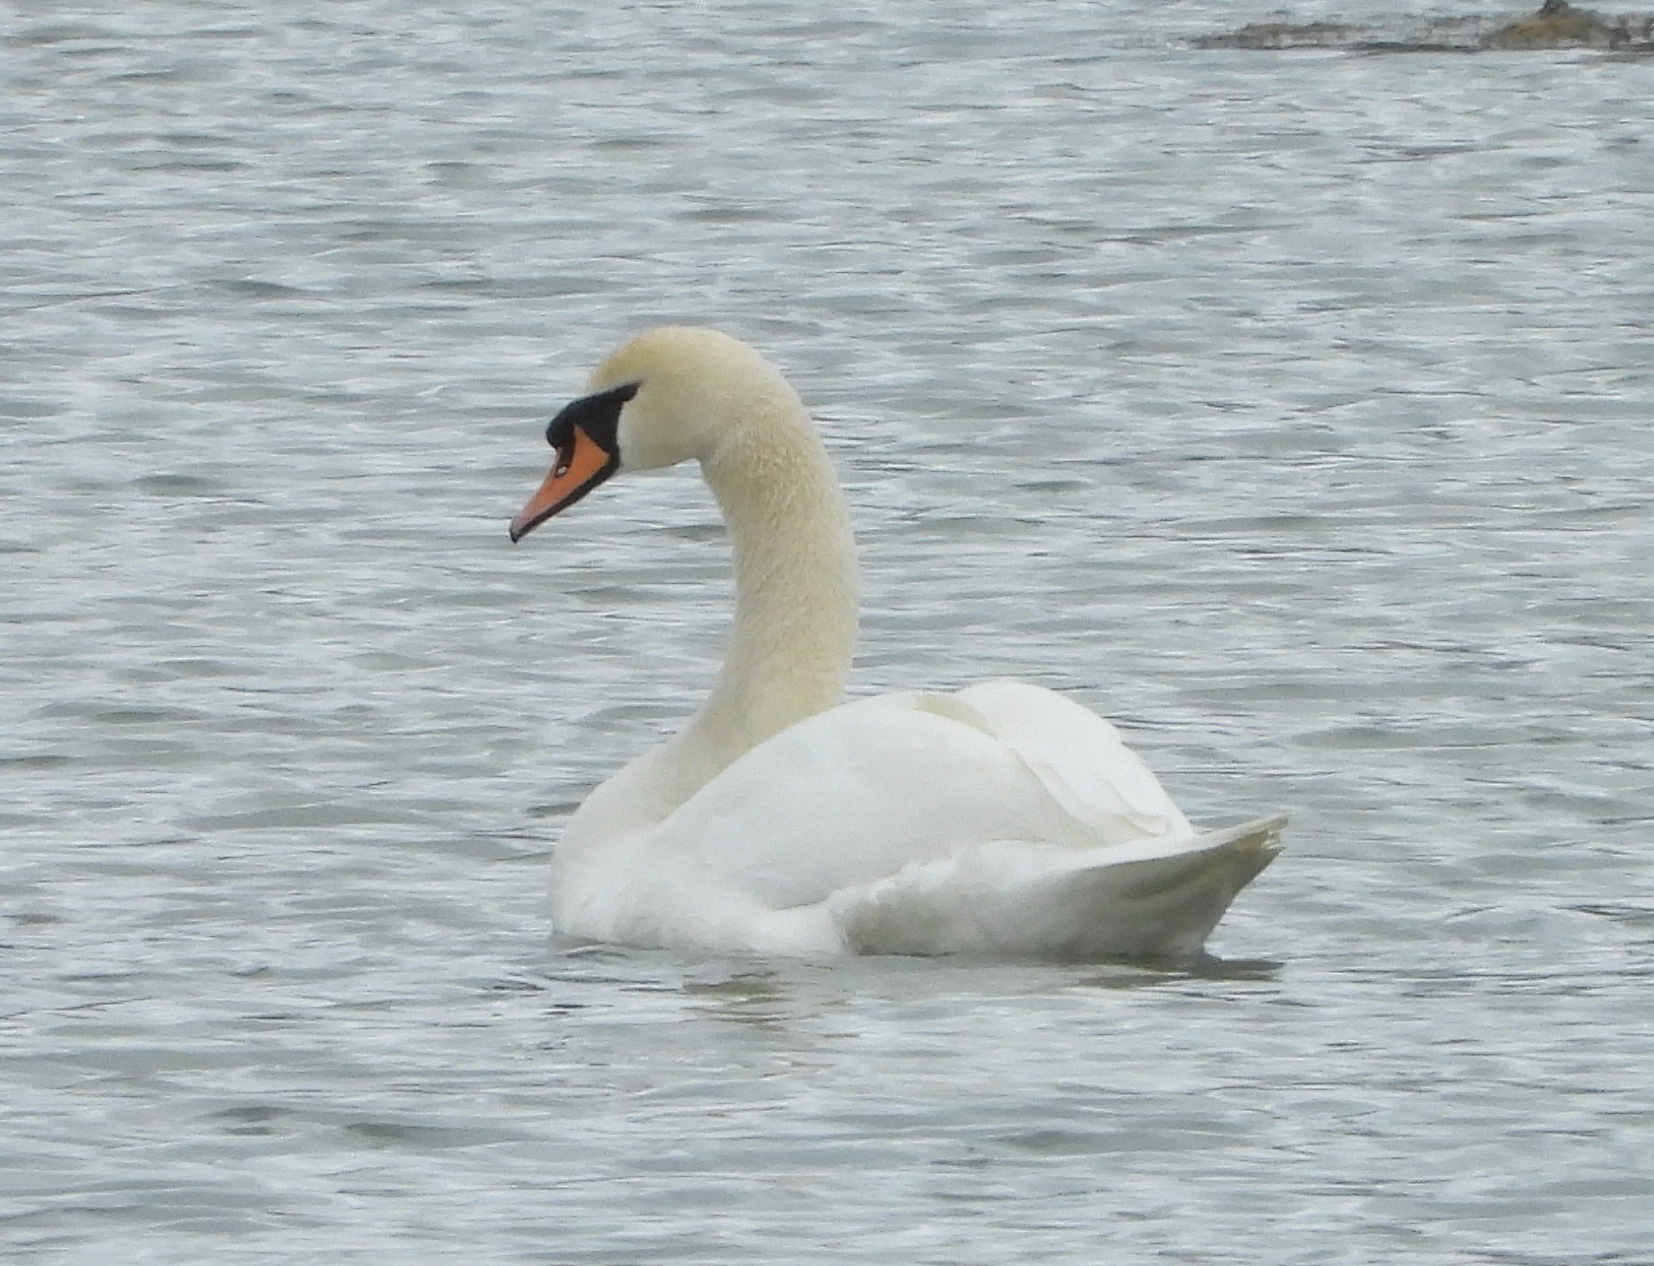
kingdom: Animalia
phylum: Chordata
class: Aves
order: Anseriformes
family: Anatidae
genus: Cygnus
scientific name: Cygnus olor
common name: Mute swan
